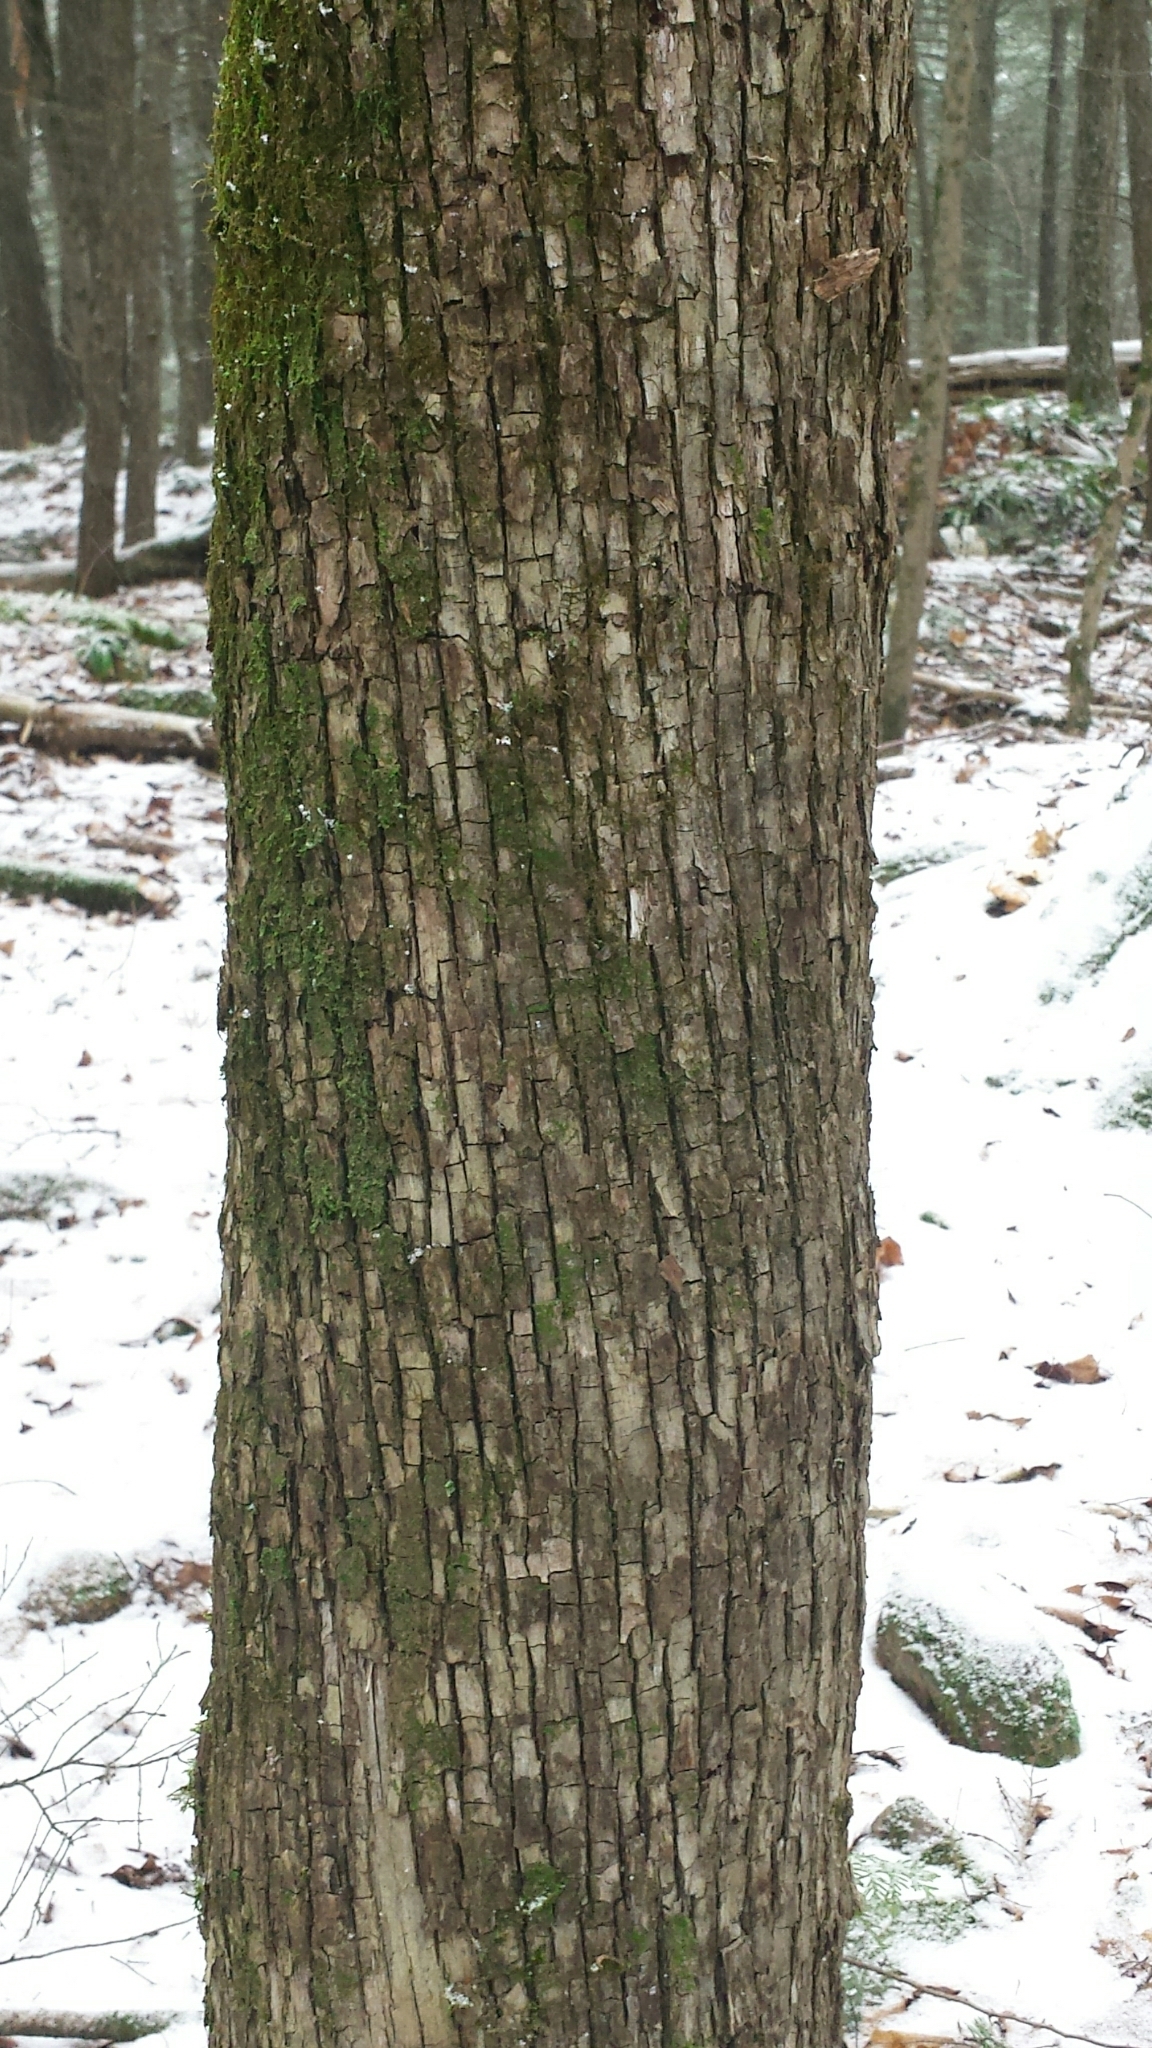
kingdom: Plantae
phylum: Tracheophyta
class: Magnoliopsida
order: Fagales
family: Betulaceae
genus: Ostrya
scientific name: Ostrya virginiana
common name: Ironwood
